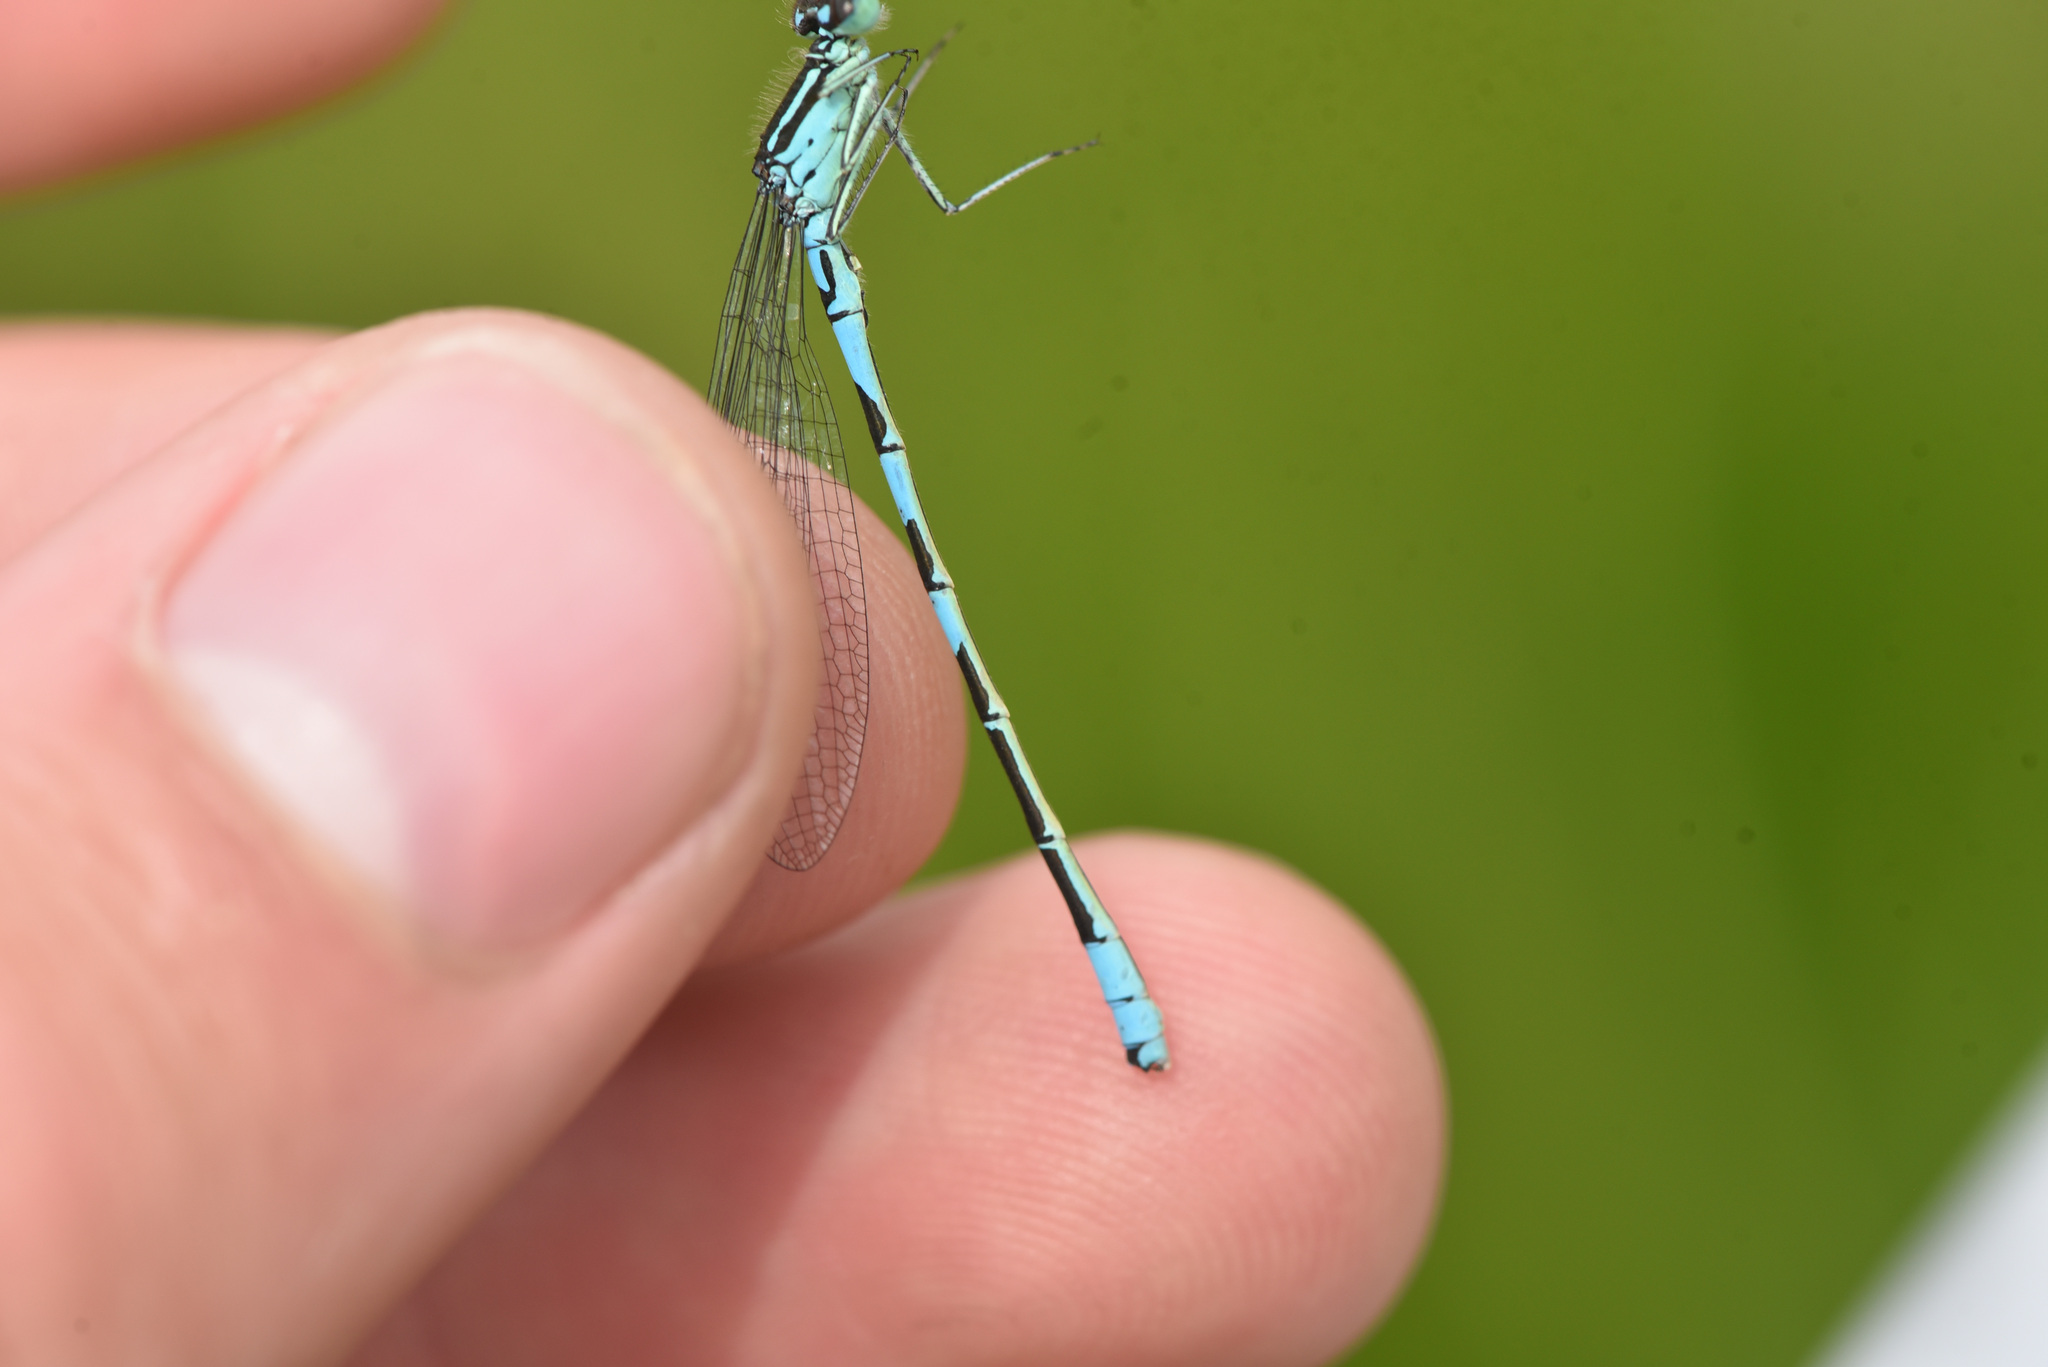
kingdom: Animalia
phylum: Arthropoda
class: Insecta
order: Odonata
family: Coenagrionidae
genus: Coenagrion
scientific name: Coenagrion resolutum
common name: Taiga bluet
